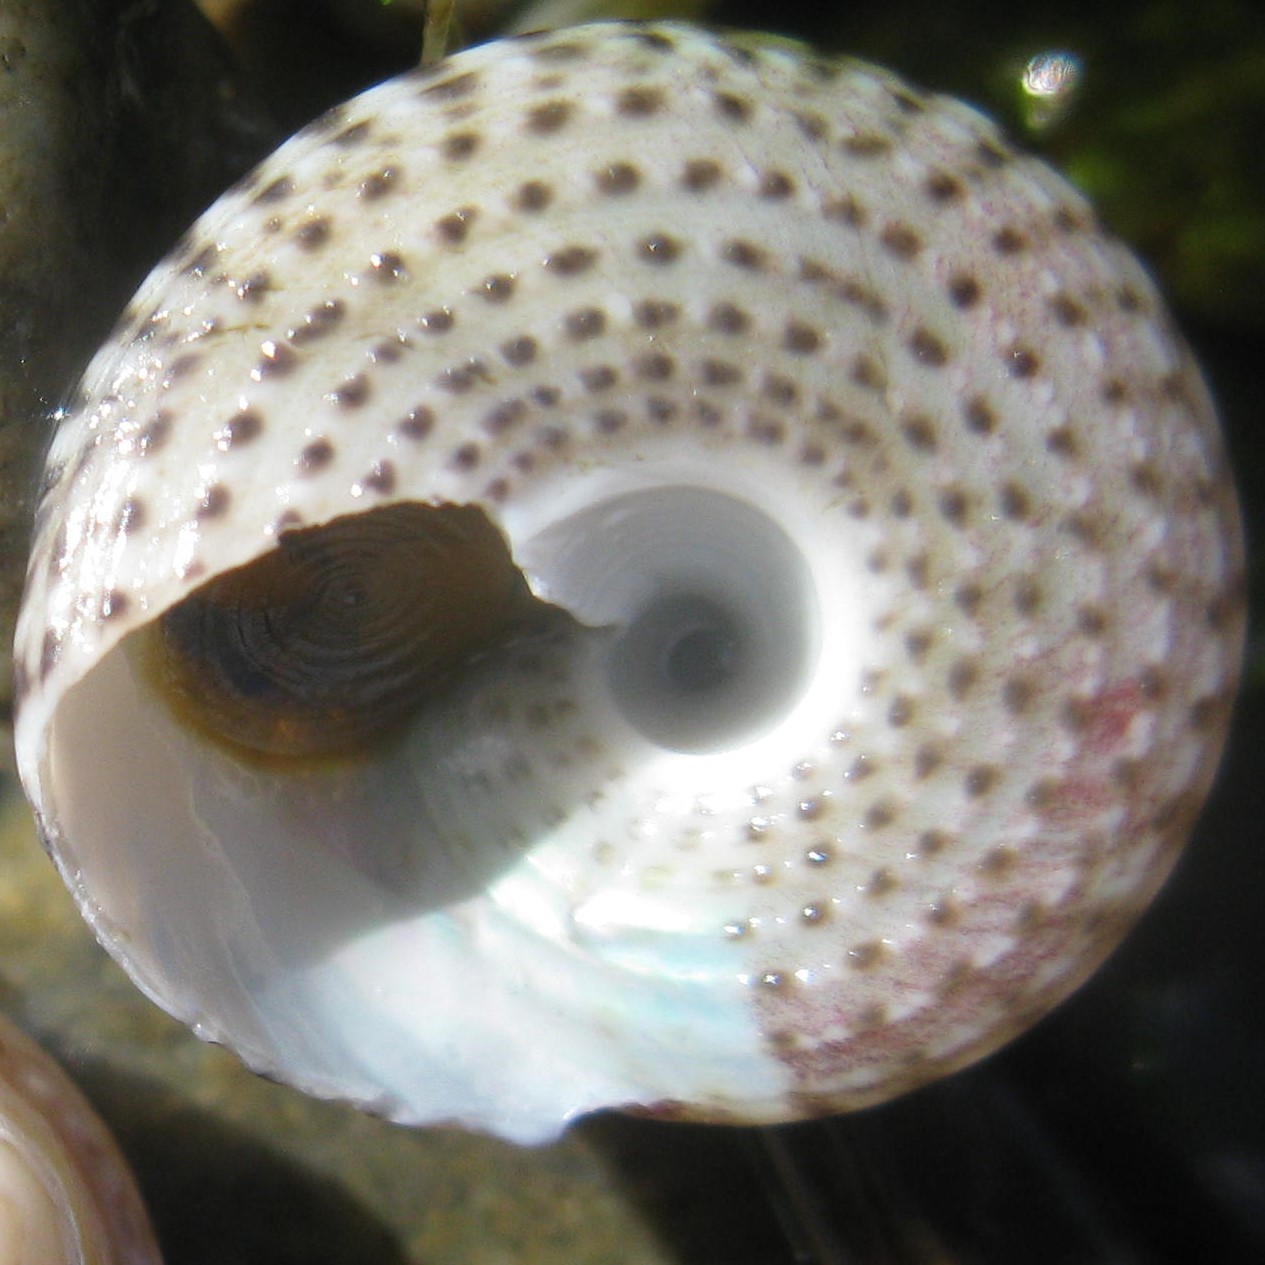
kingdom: Animalia
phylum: Mollusca
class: Gastropoda
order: Trochida
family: Trochidae
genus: Coelotrochus
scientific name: Coelotrochus tiaratus
